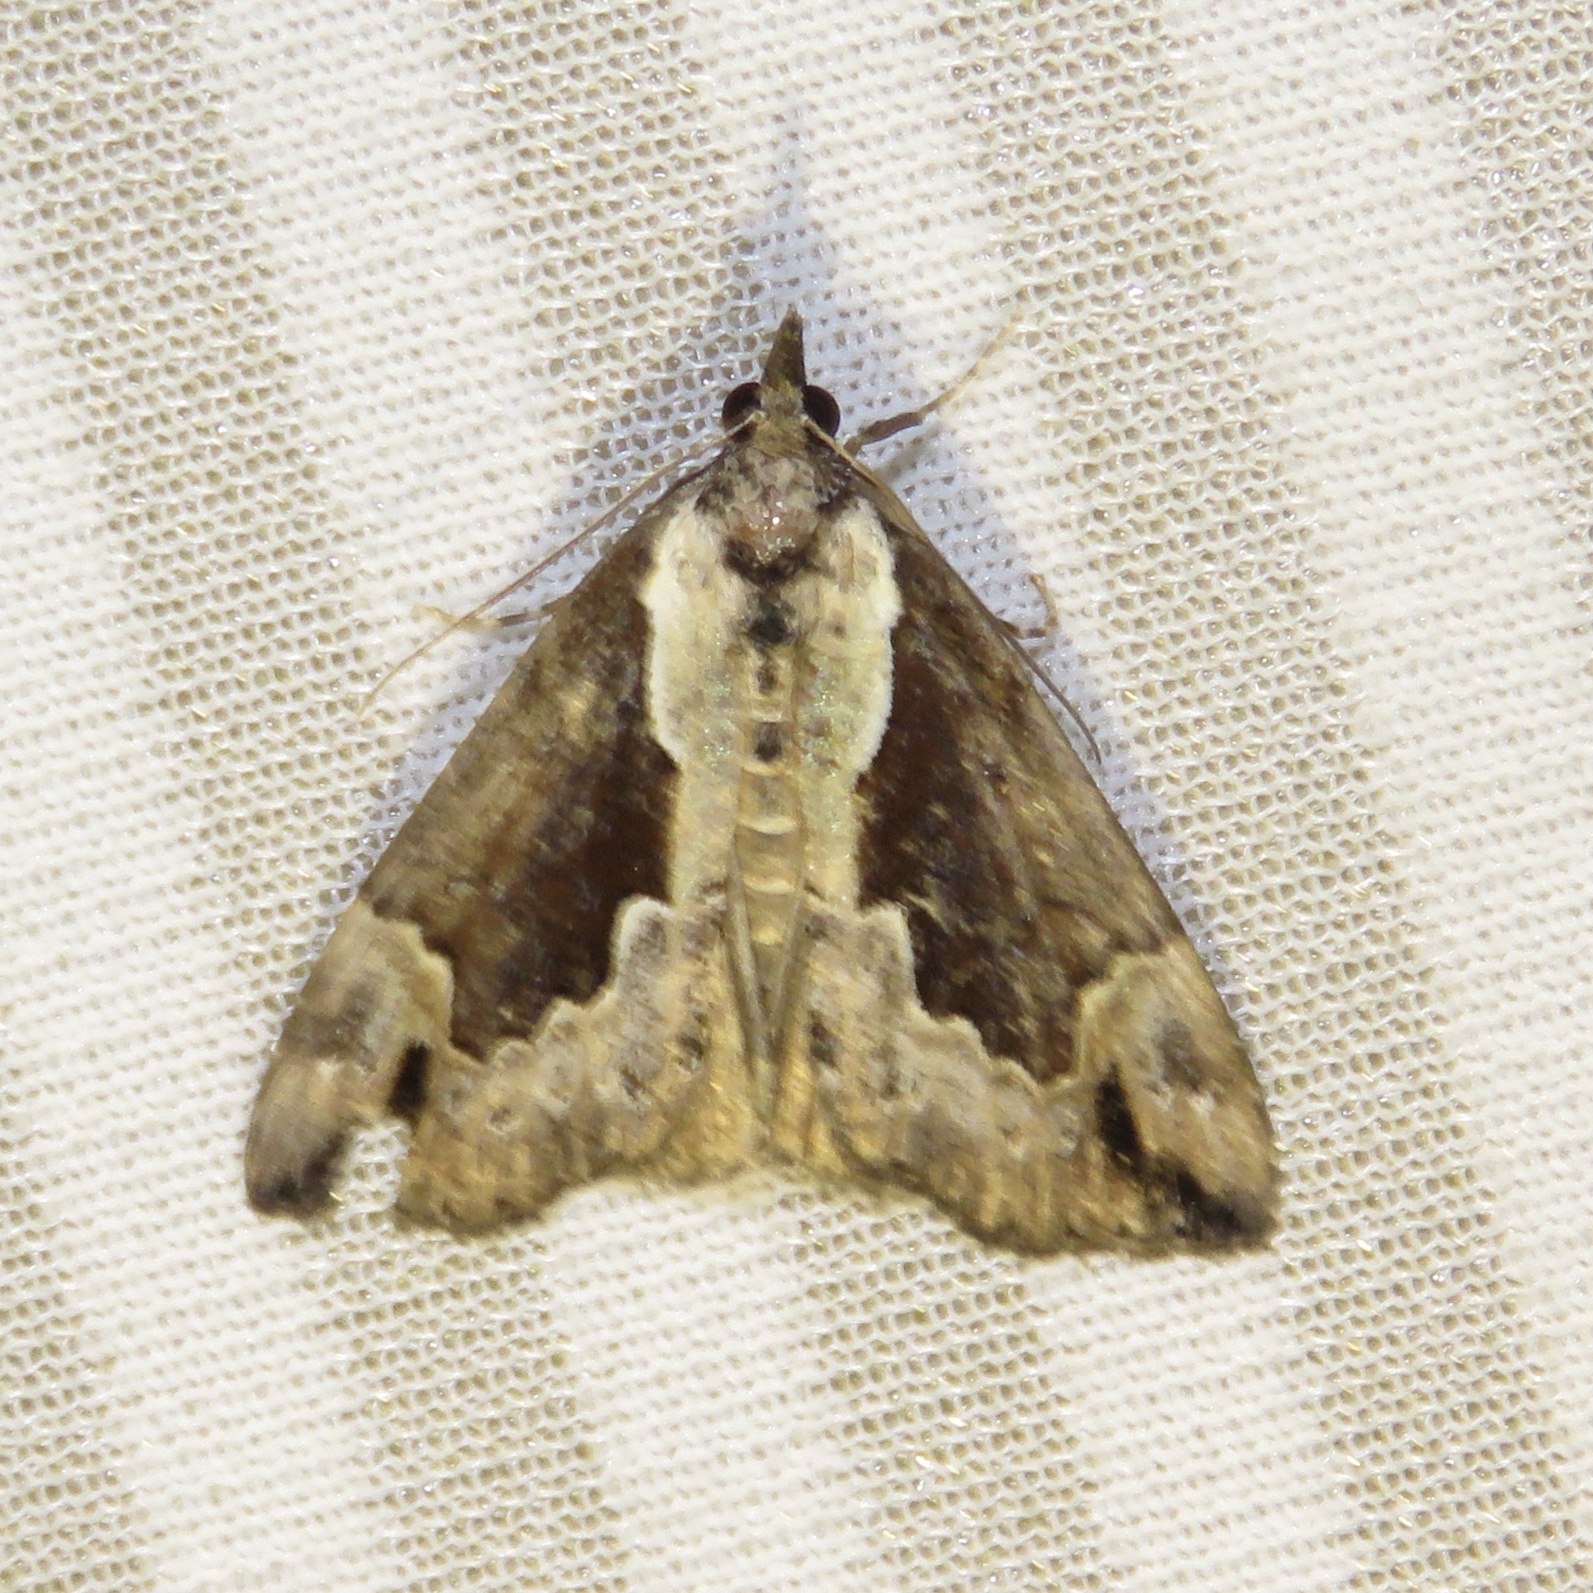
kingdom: Animalia
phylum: Arthropoda
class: Insecta
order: Lepidoptera
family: Erebidae
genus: Hypena
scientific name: Hypena baltimoralis
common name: Baltimore snout
